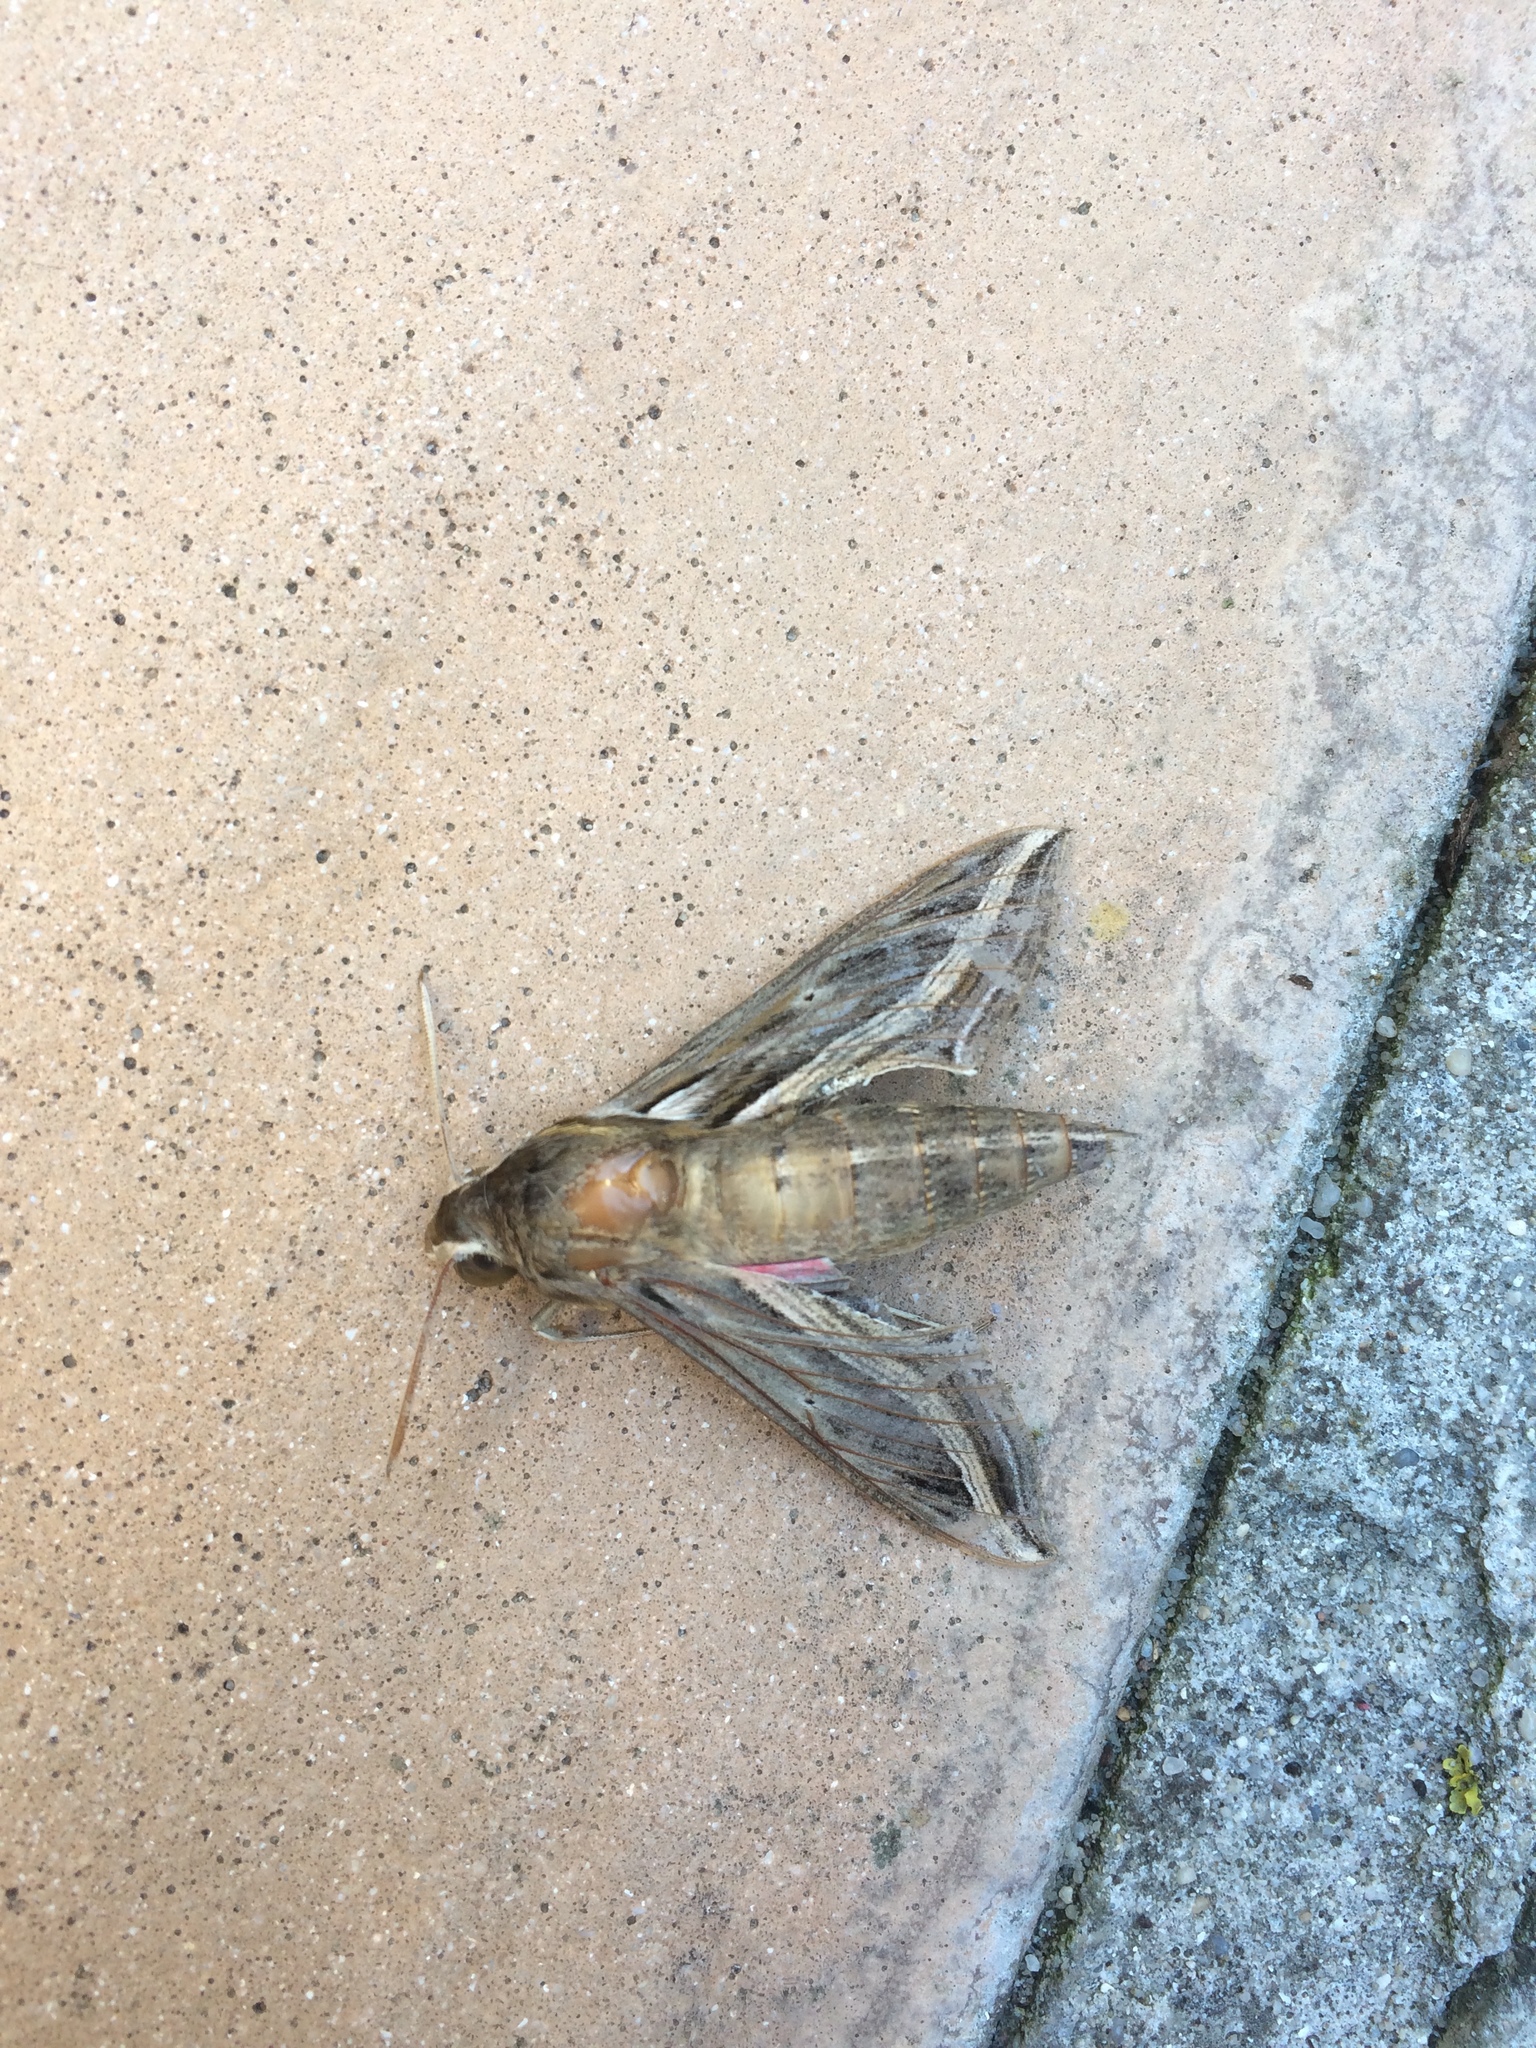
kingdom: Animalia
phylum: Arthropoda
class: Insecta
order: Lepidoptera
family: Sphingidae
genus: Hippotion
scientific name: Hippotion celerio
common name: Silver-striped hawk-moth
